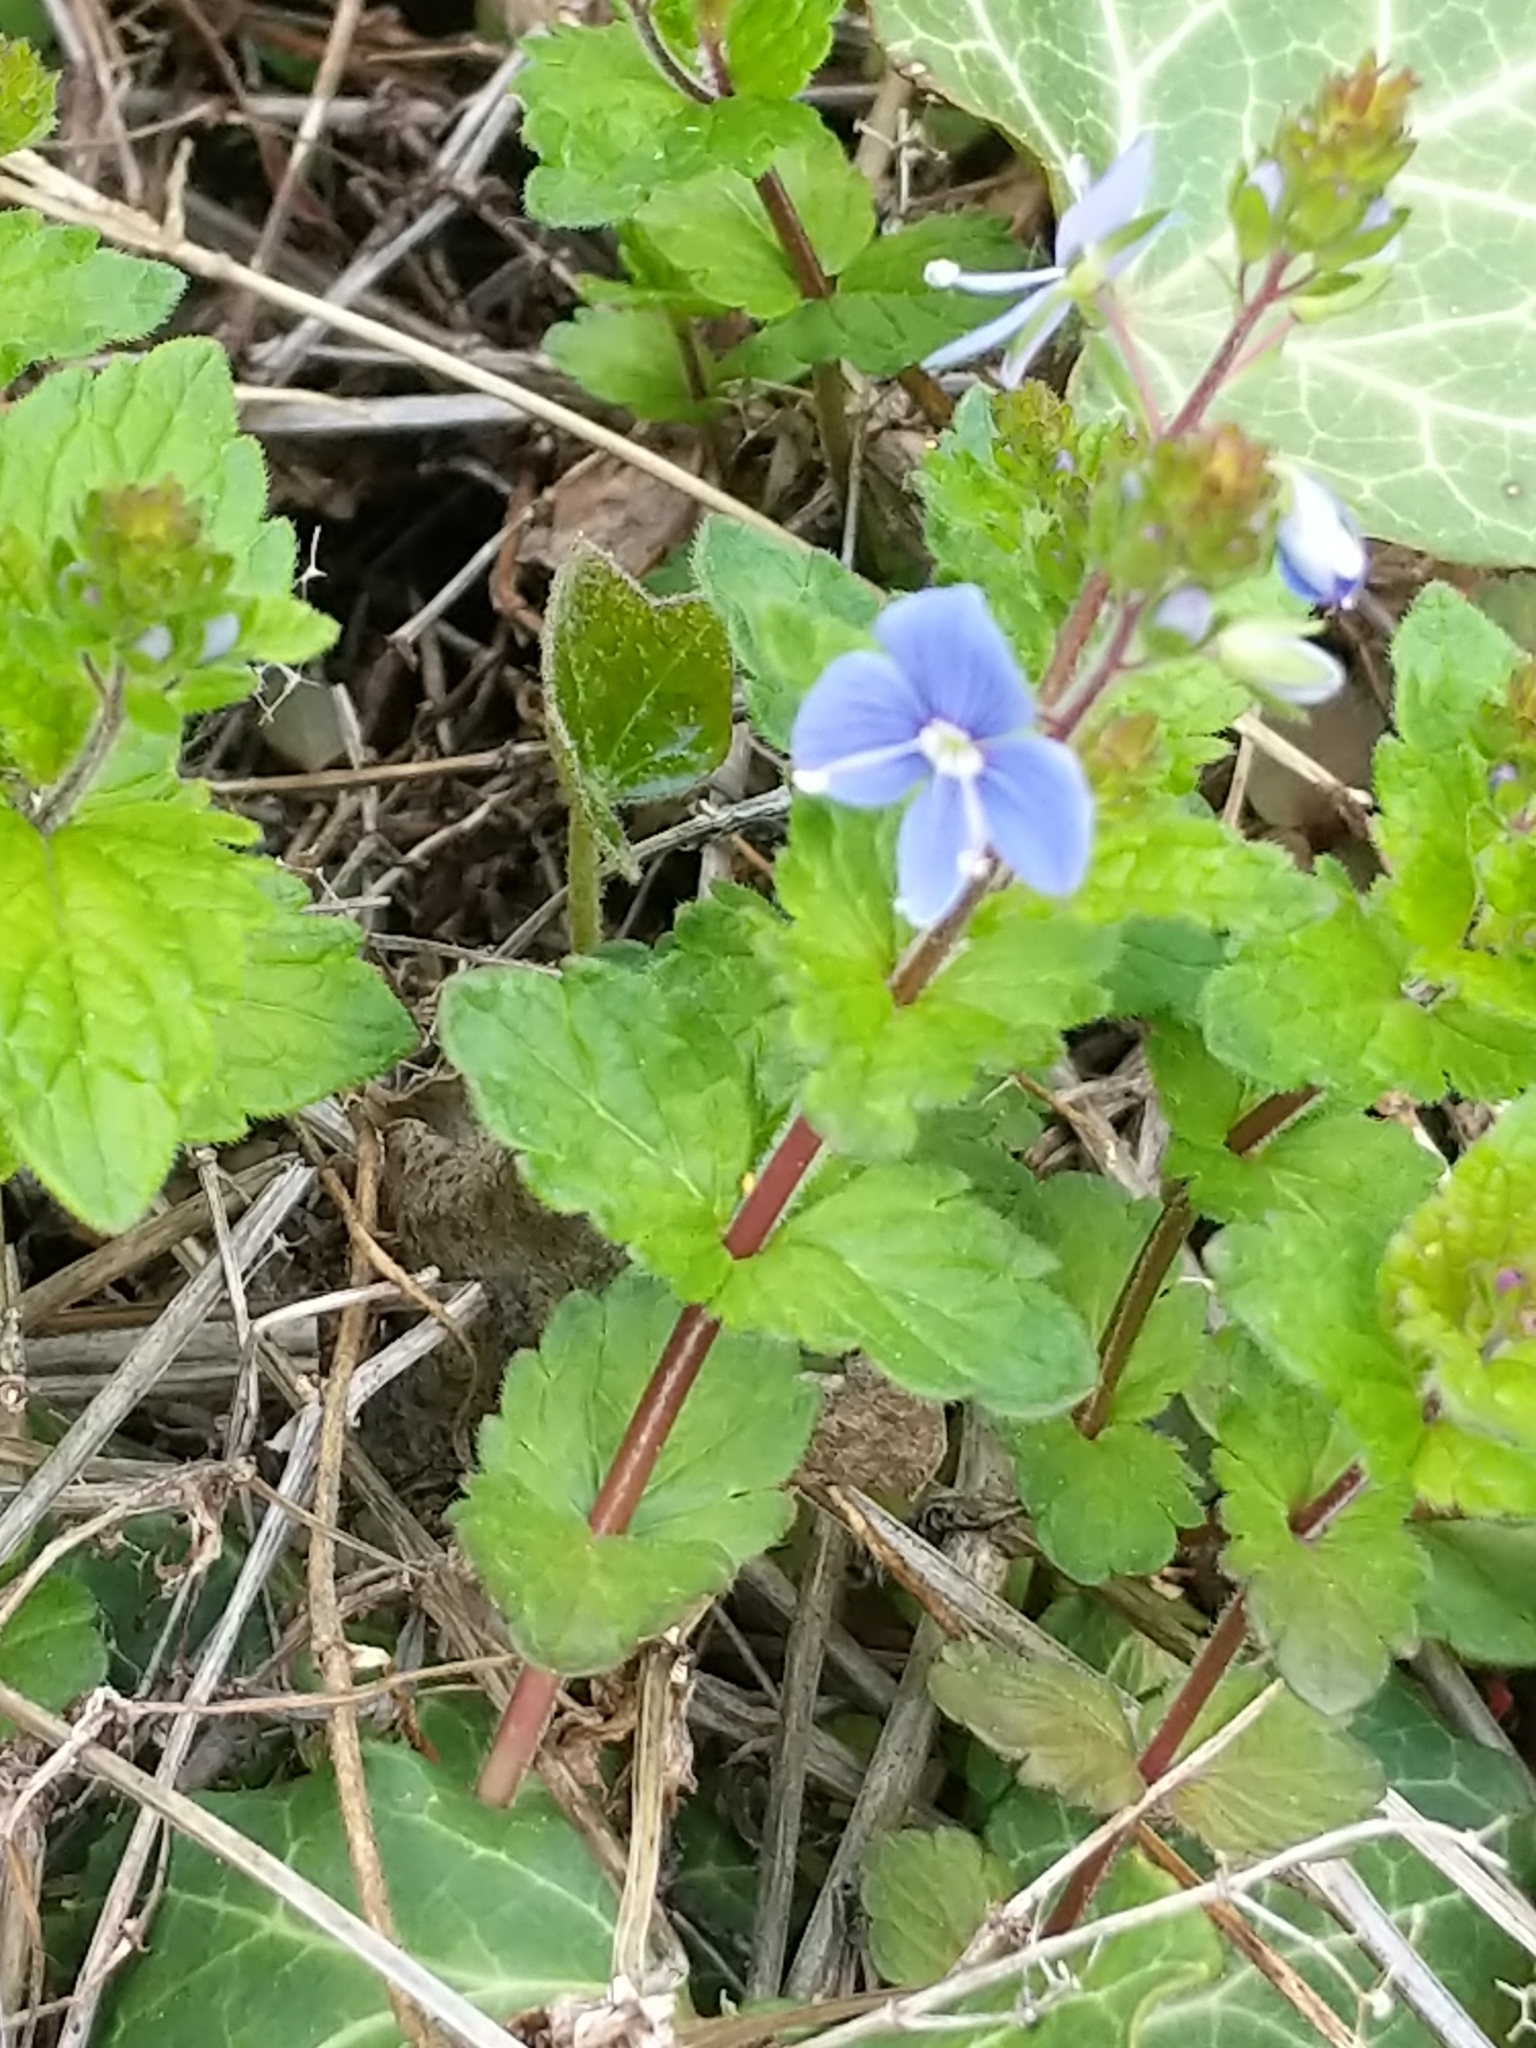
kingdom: Plantae
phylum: Tracheophyta
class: Magnoliopsida
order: Lamiales
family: Plantaginaceae
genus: Veronica
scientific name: Veronica chamaedrys
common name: Germander speedwell
